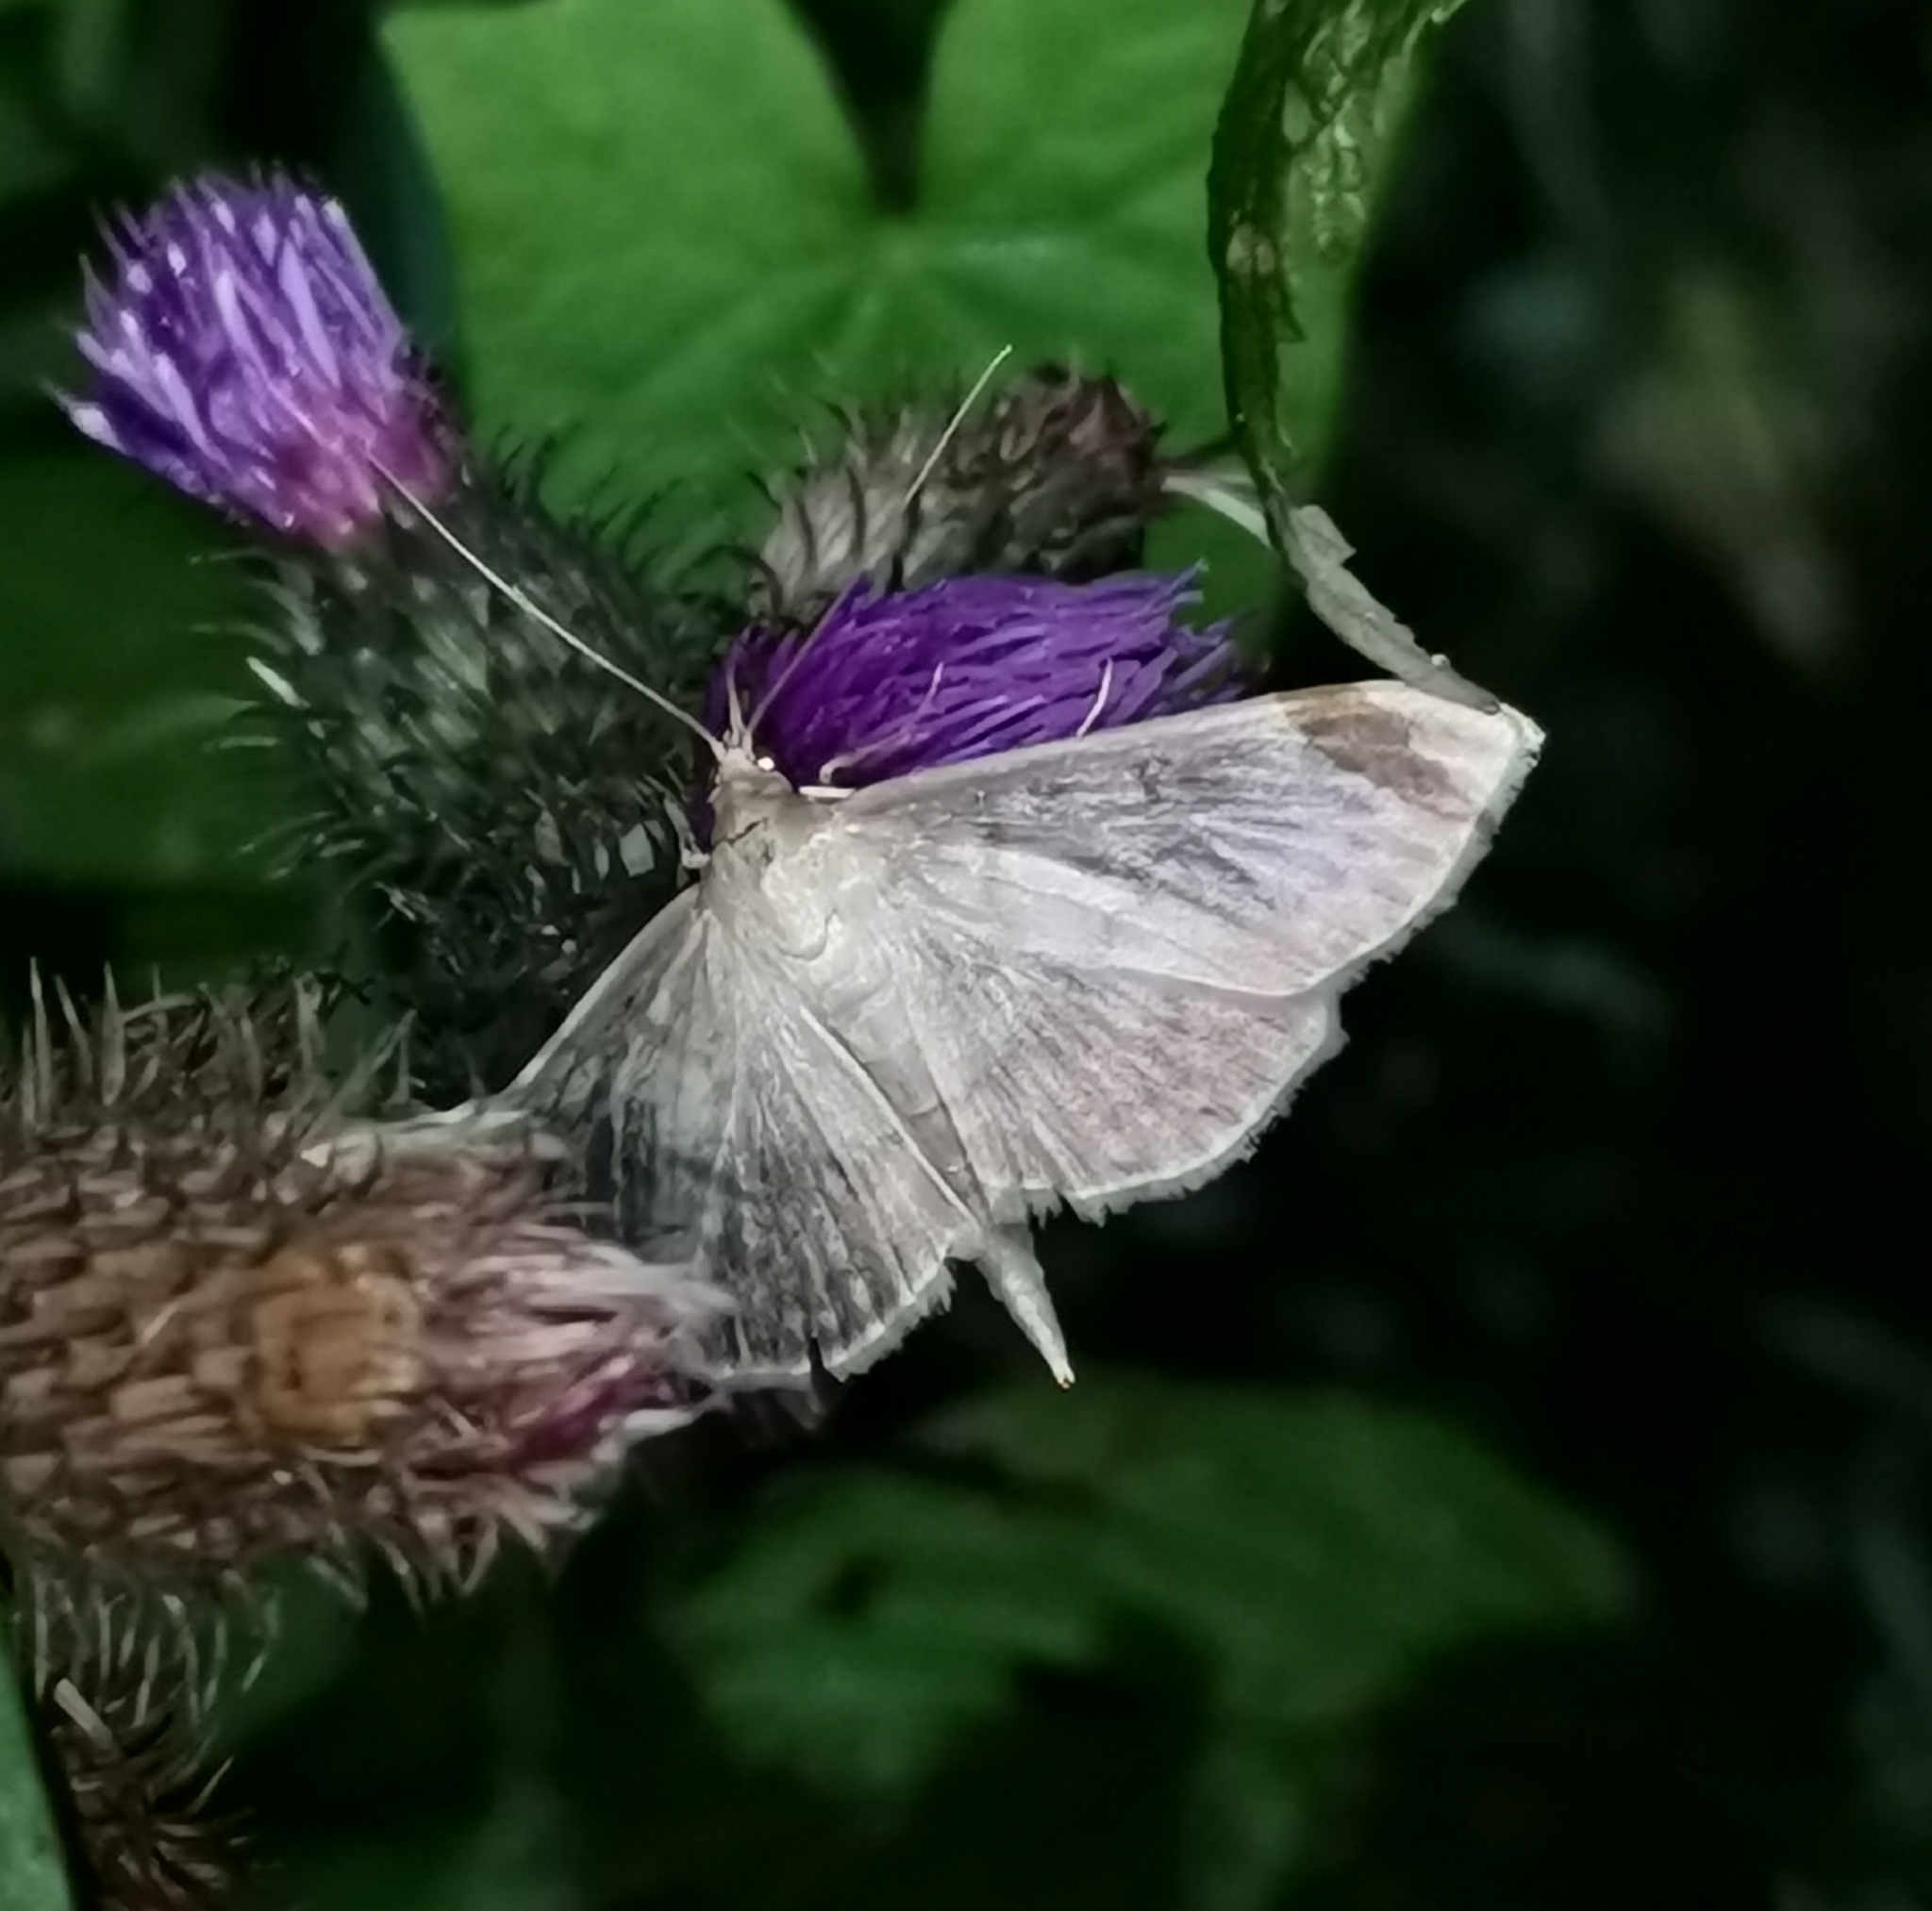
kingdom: Animalia
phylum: Arthropoda
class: Insecta
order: Lepidoptera
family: Crambidae
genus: Patania
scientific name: Patania ruralis
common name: Mother of pearl
